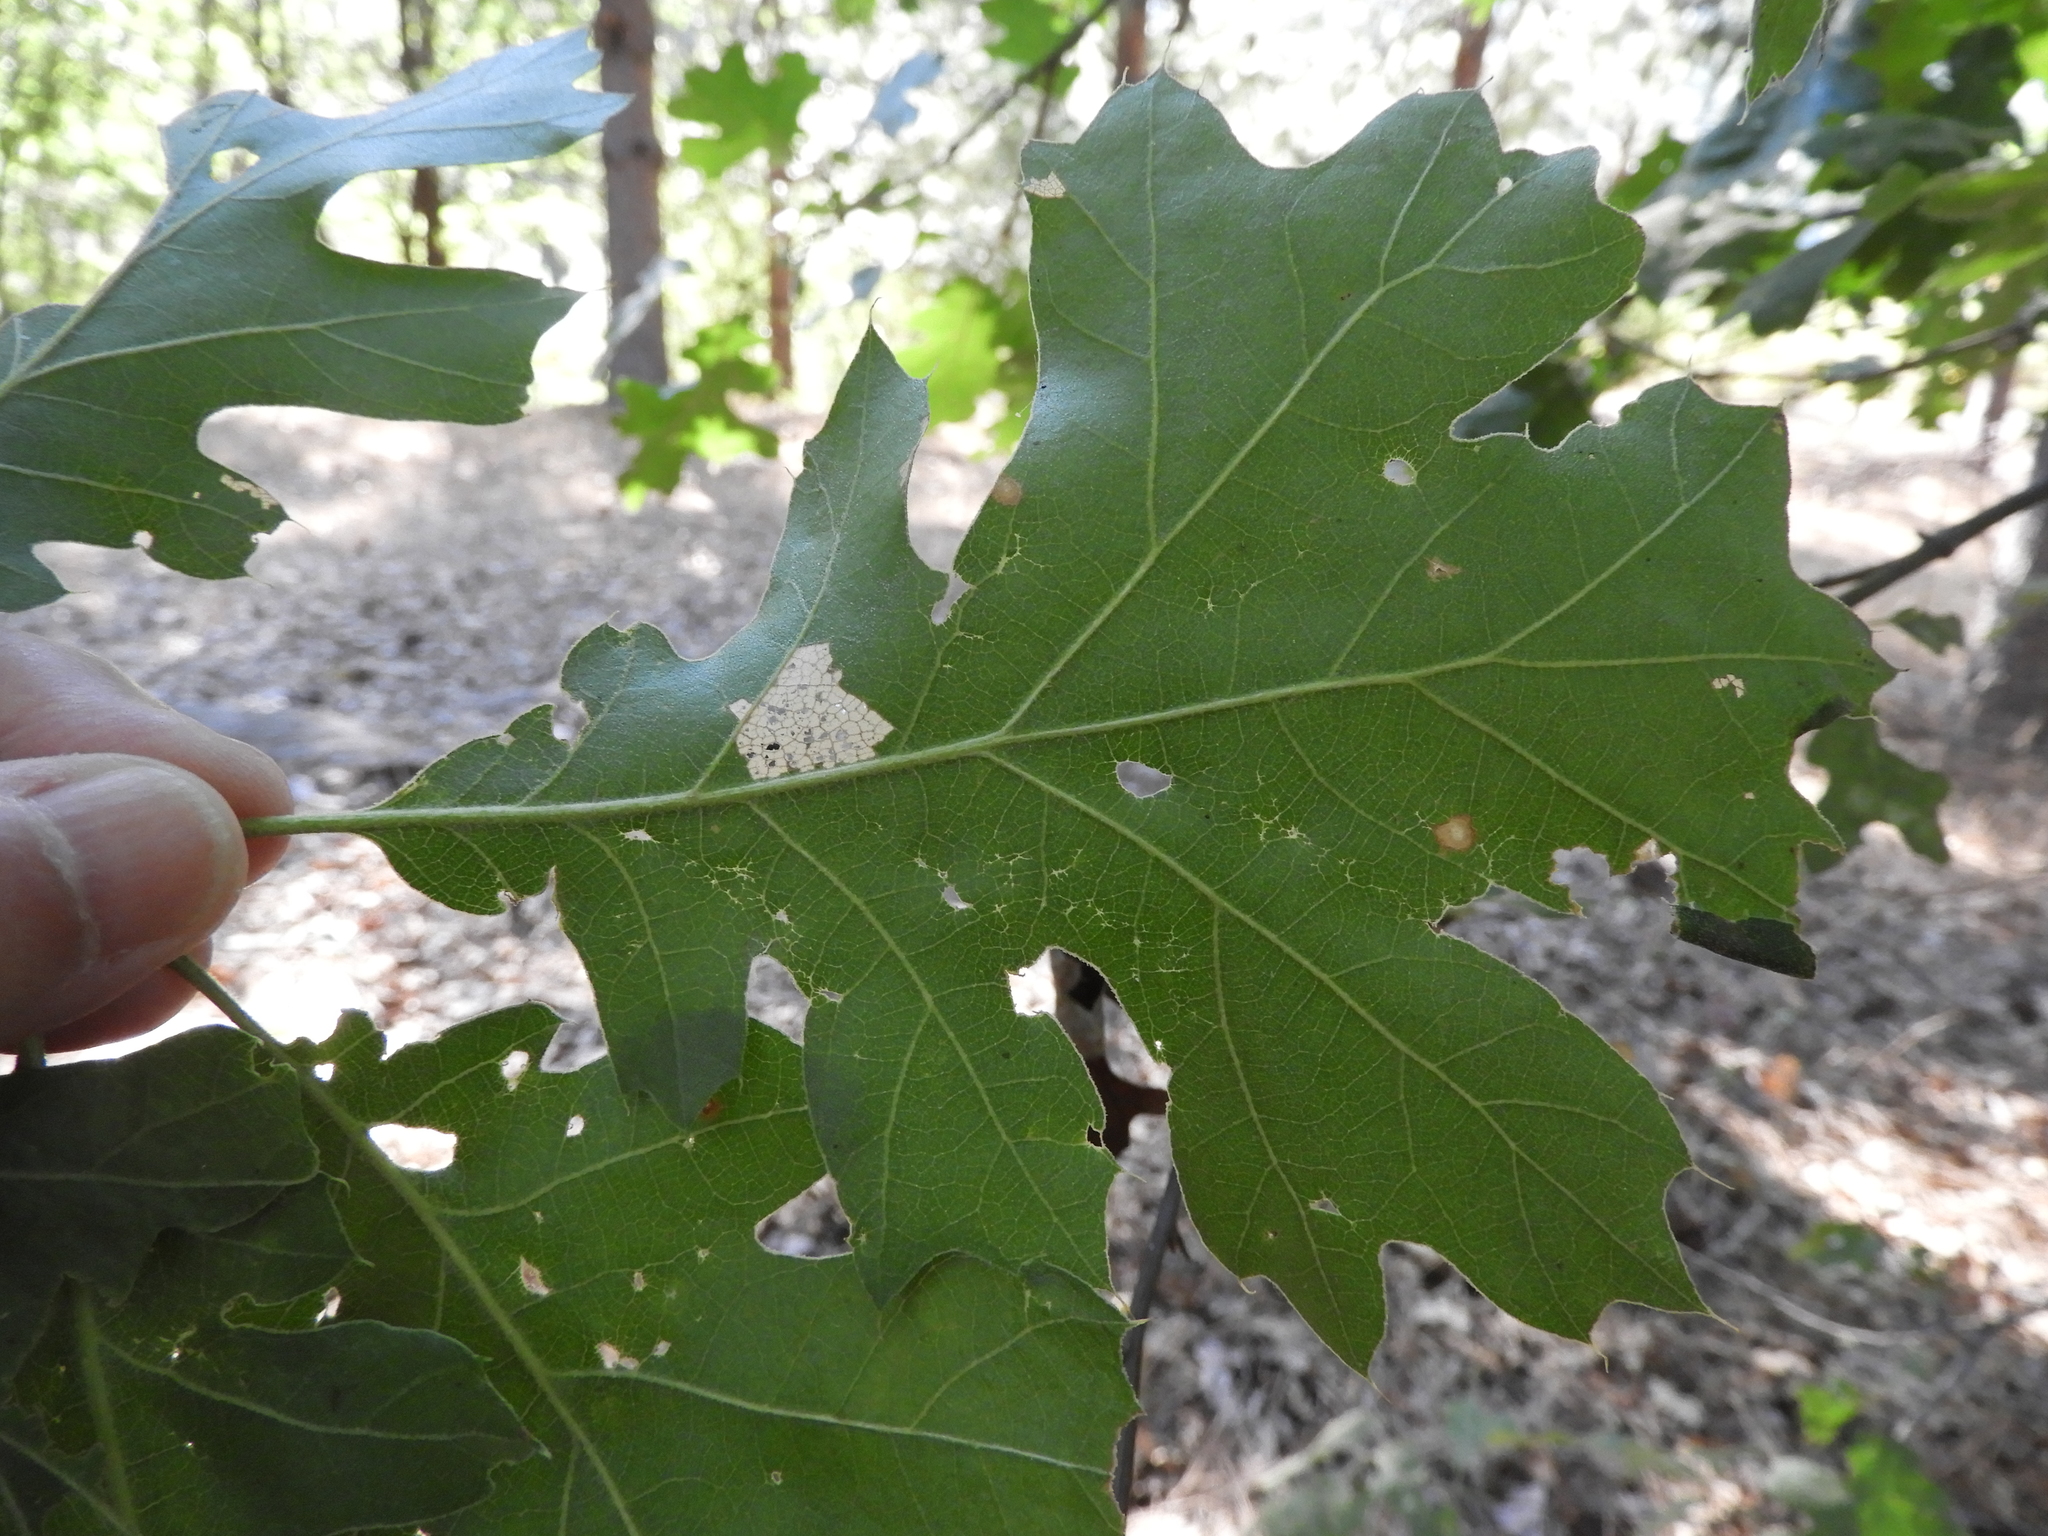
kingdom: Plantae
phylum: Tracheophyta
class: Magnoliopsida
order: Fagales
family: Fagaceae
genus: Quercus
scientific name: Quercus kelloggii
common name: California black oak
